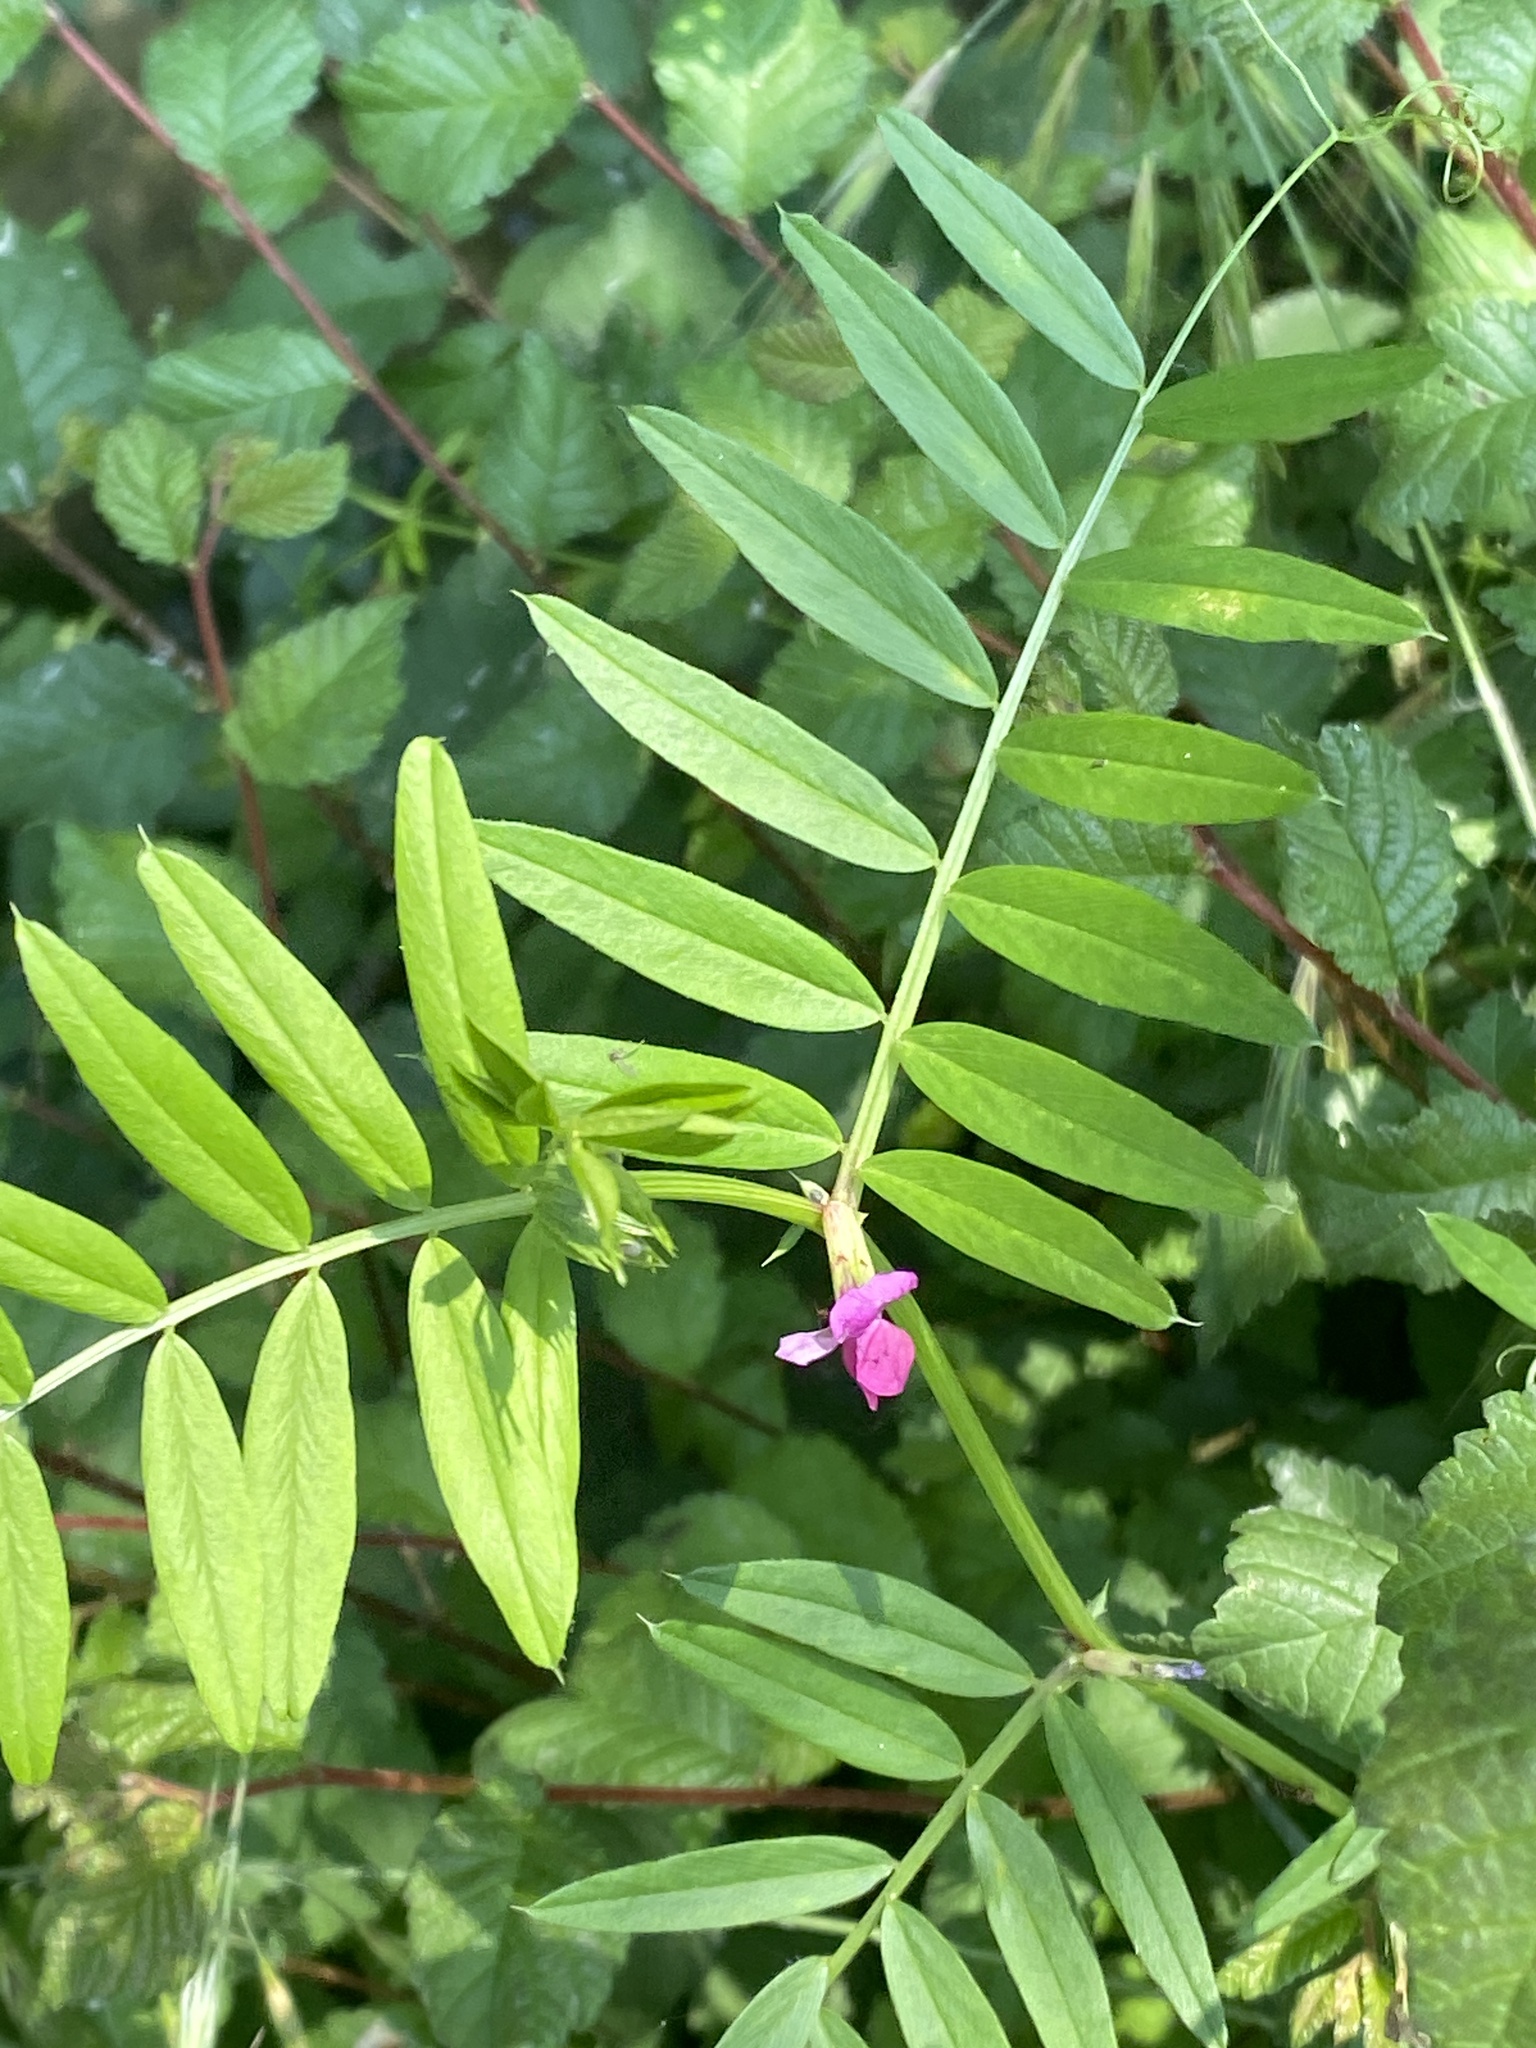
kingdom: Plantae
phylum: Tracheophyta
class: Magnoliopsida
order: Fabales
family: Fabaceae
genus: Vicia
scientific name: Vicia sativa
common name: Garden vetch
